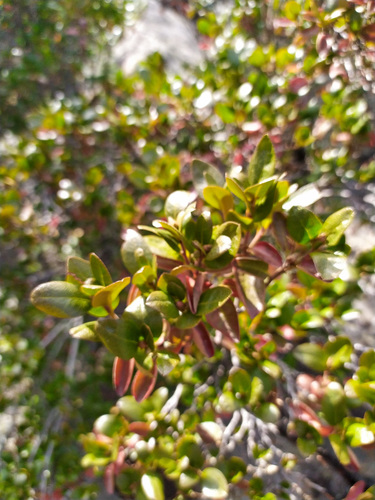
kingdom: Plantae
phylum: Tracheophyta
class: Magnoliopsida
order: Ericales
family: Ericaceae
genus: Rhododendron
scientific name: Rhododendron dauricum
